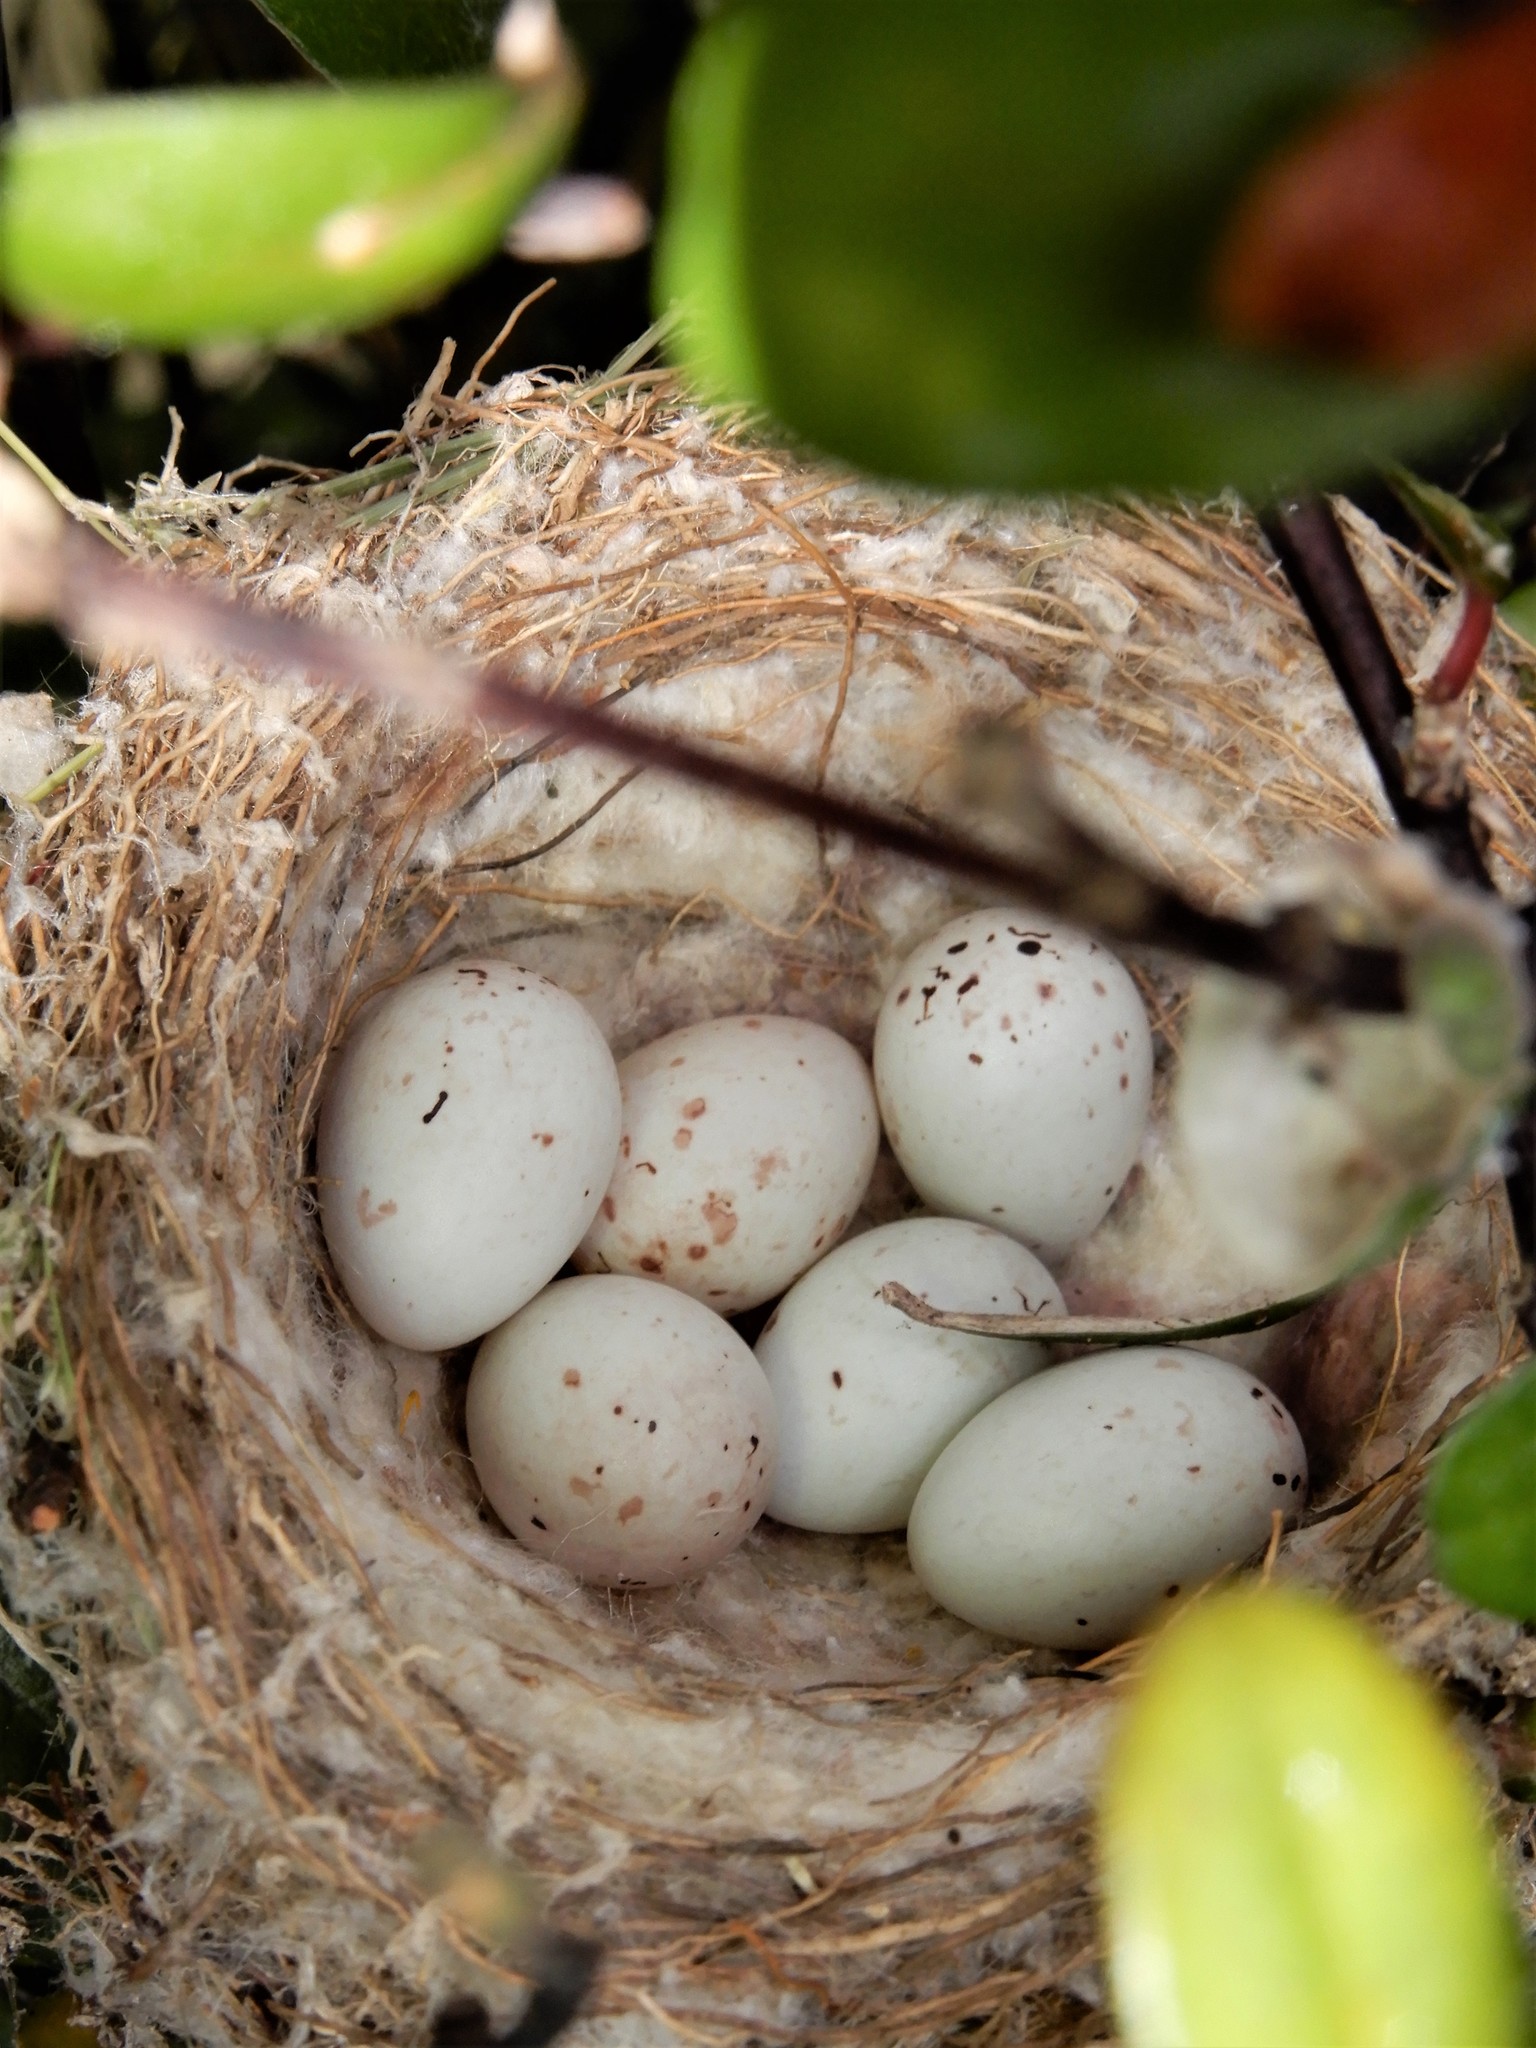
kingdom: Animalia
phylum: Chordata
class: Aves
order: Passeriformes
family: Fringillidae
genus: Carduelis
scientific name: Carduelis carduelis
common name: European goldfinch
